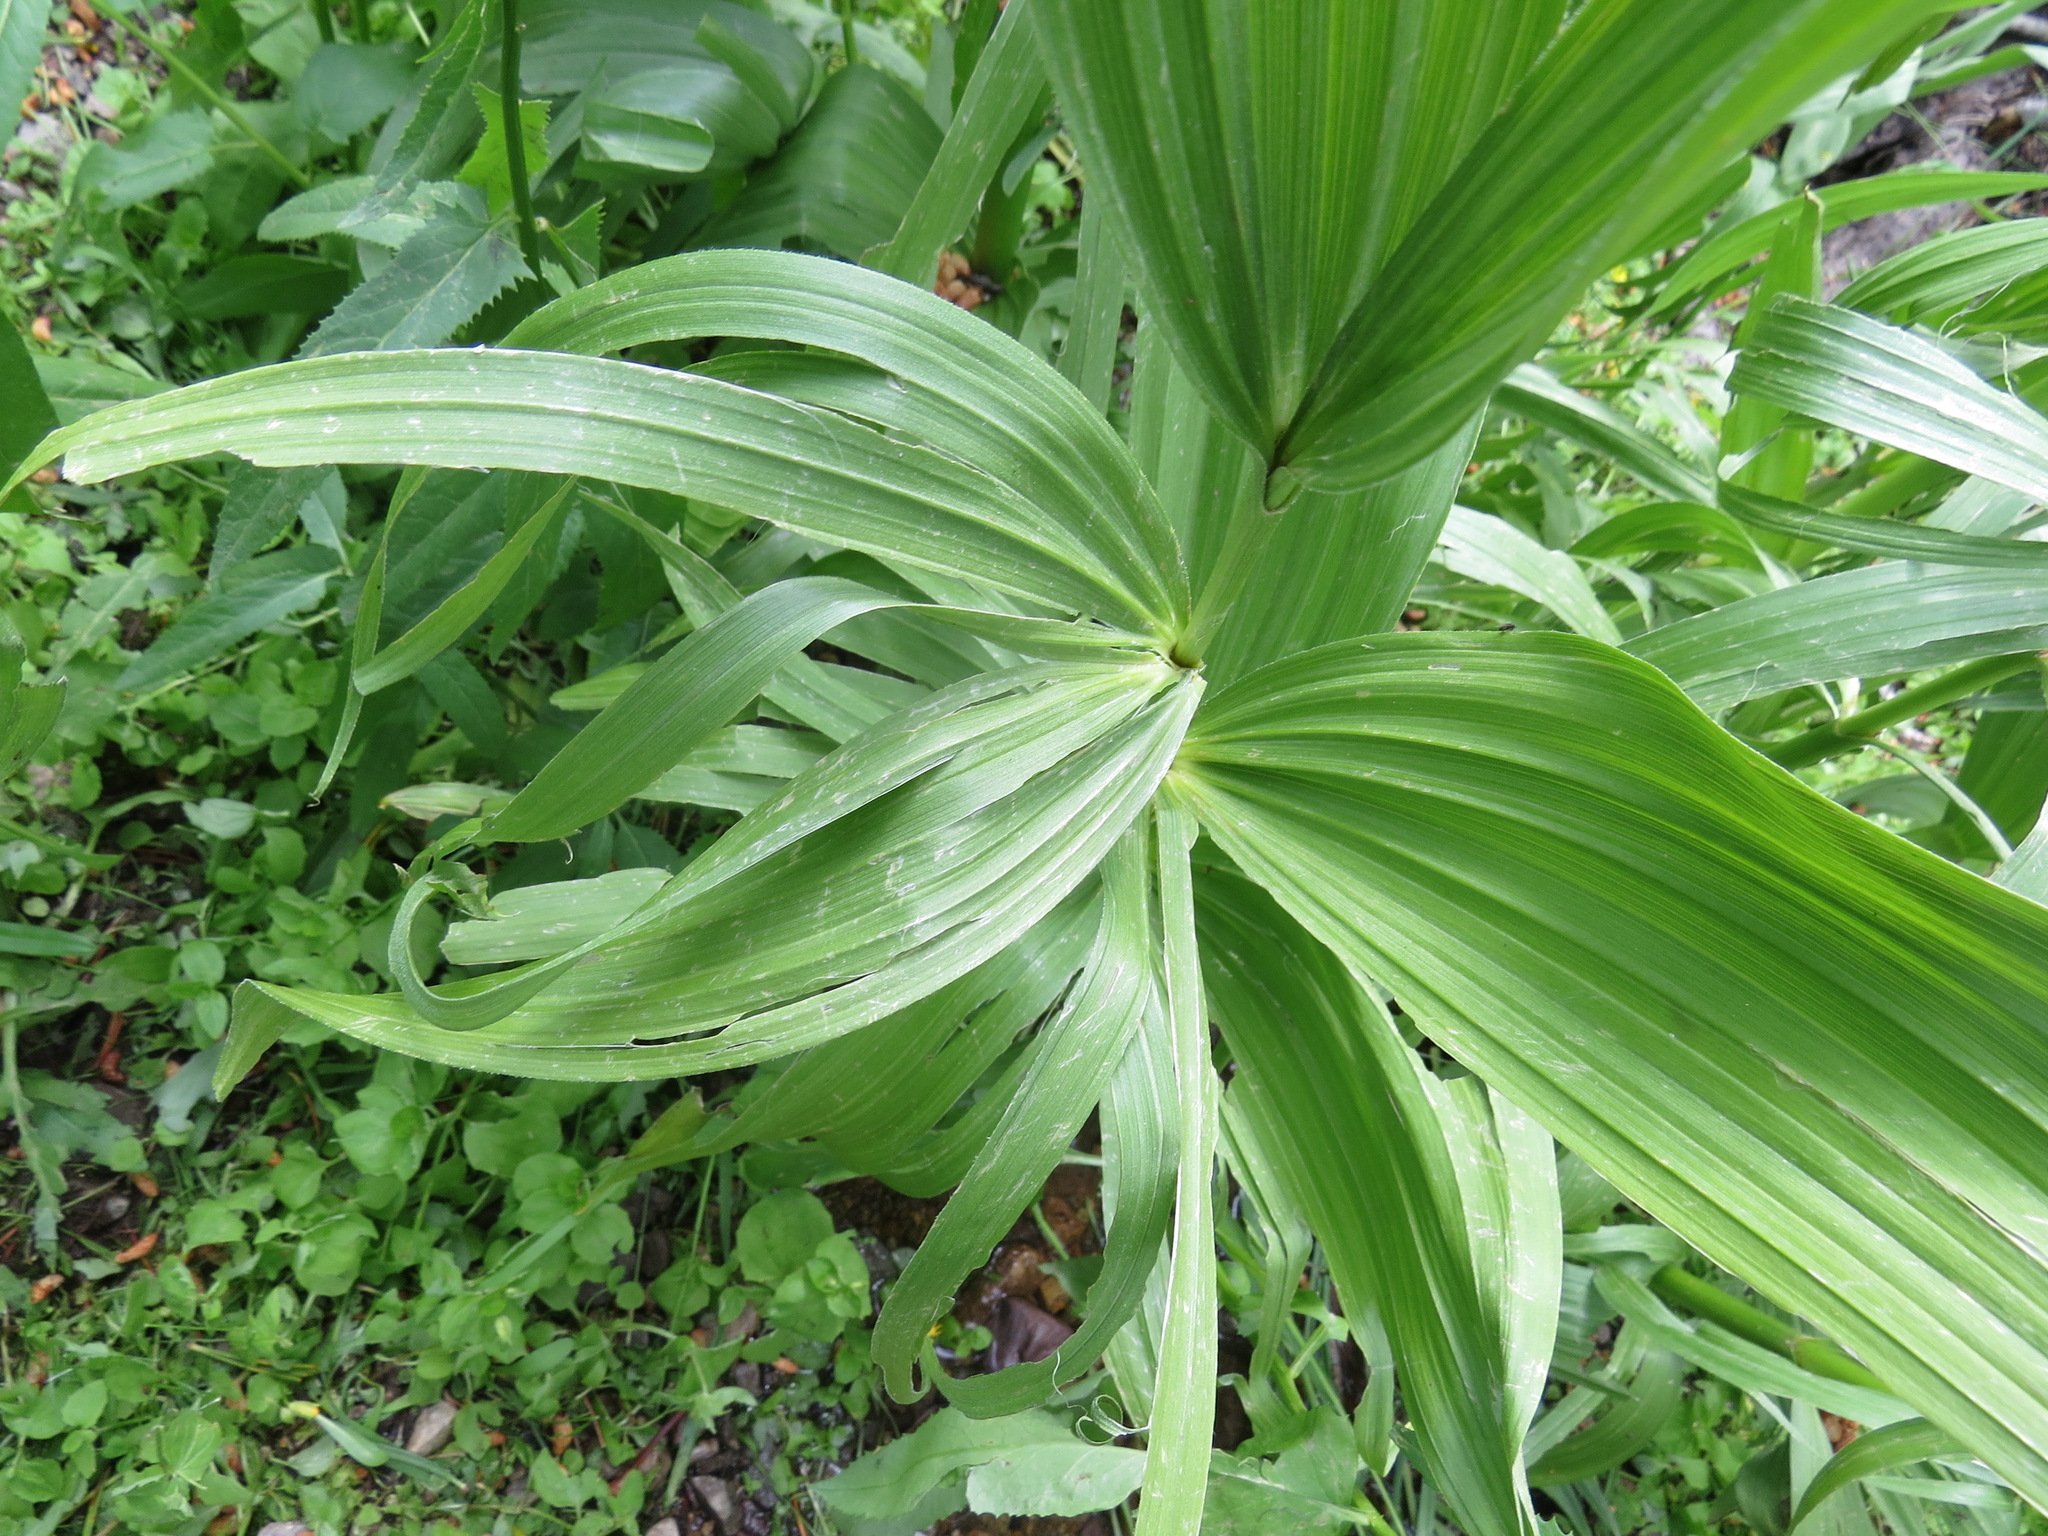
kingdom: Plantae
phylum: Tracheophyta
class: Liliopsida
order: Liliales
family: Melanthiaceae
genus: Veratrum
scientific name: Veratrum californicum
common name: California veratrum
